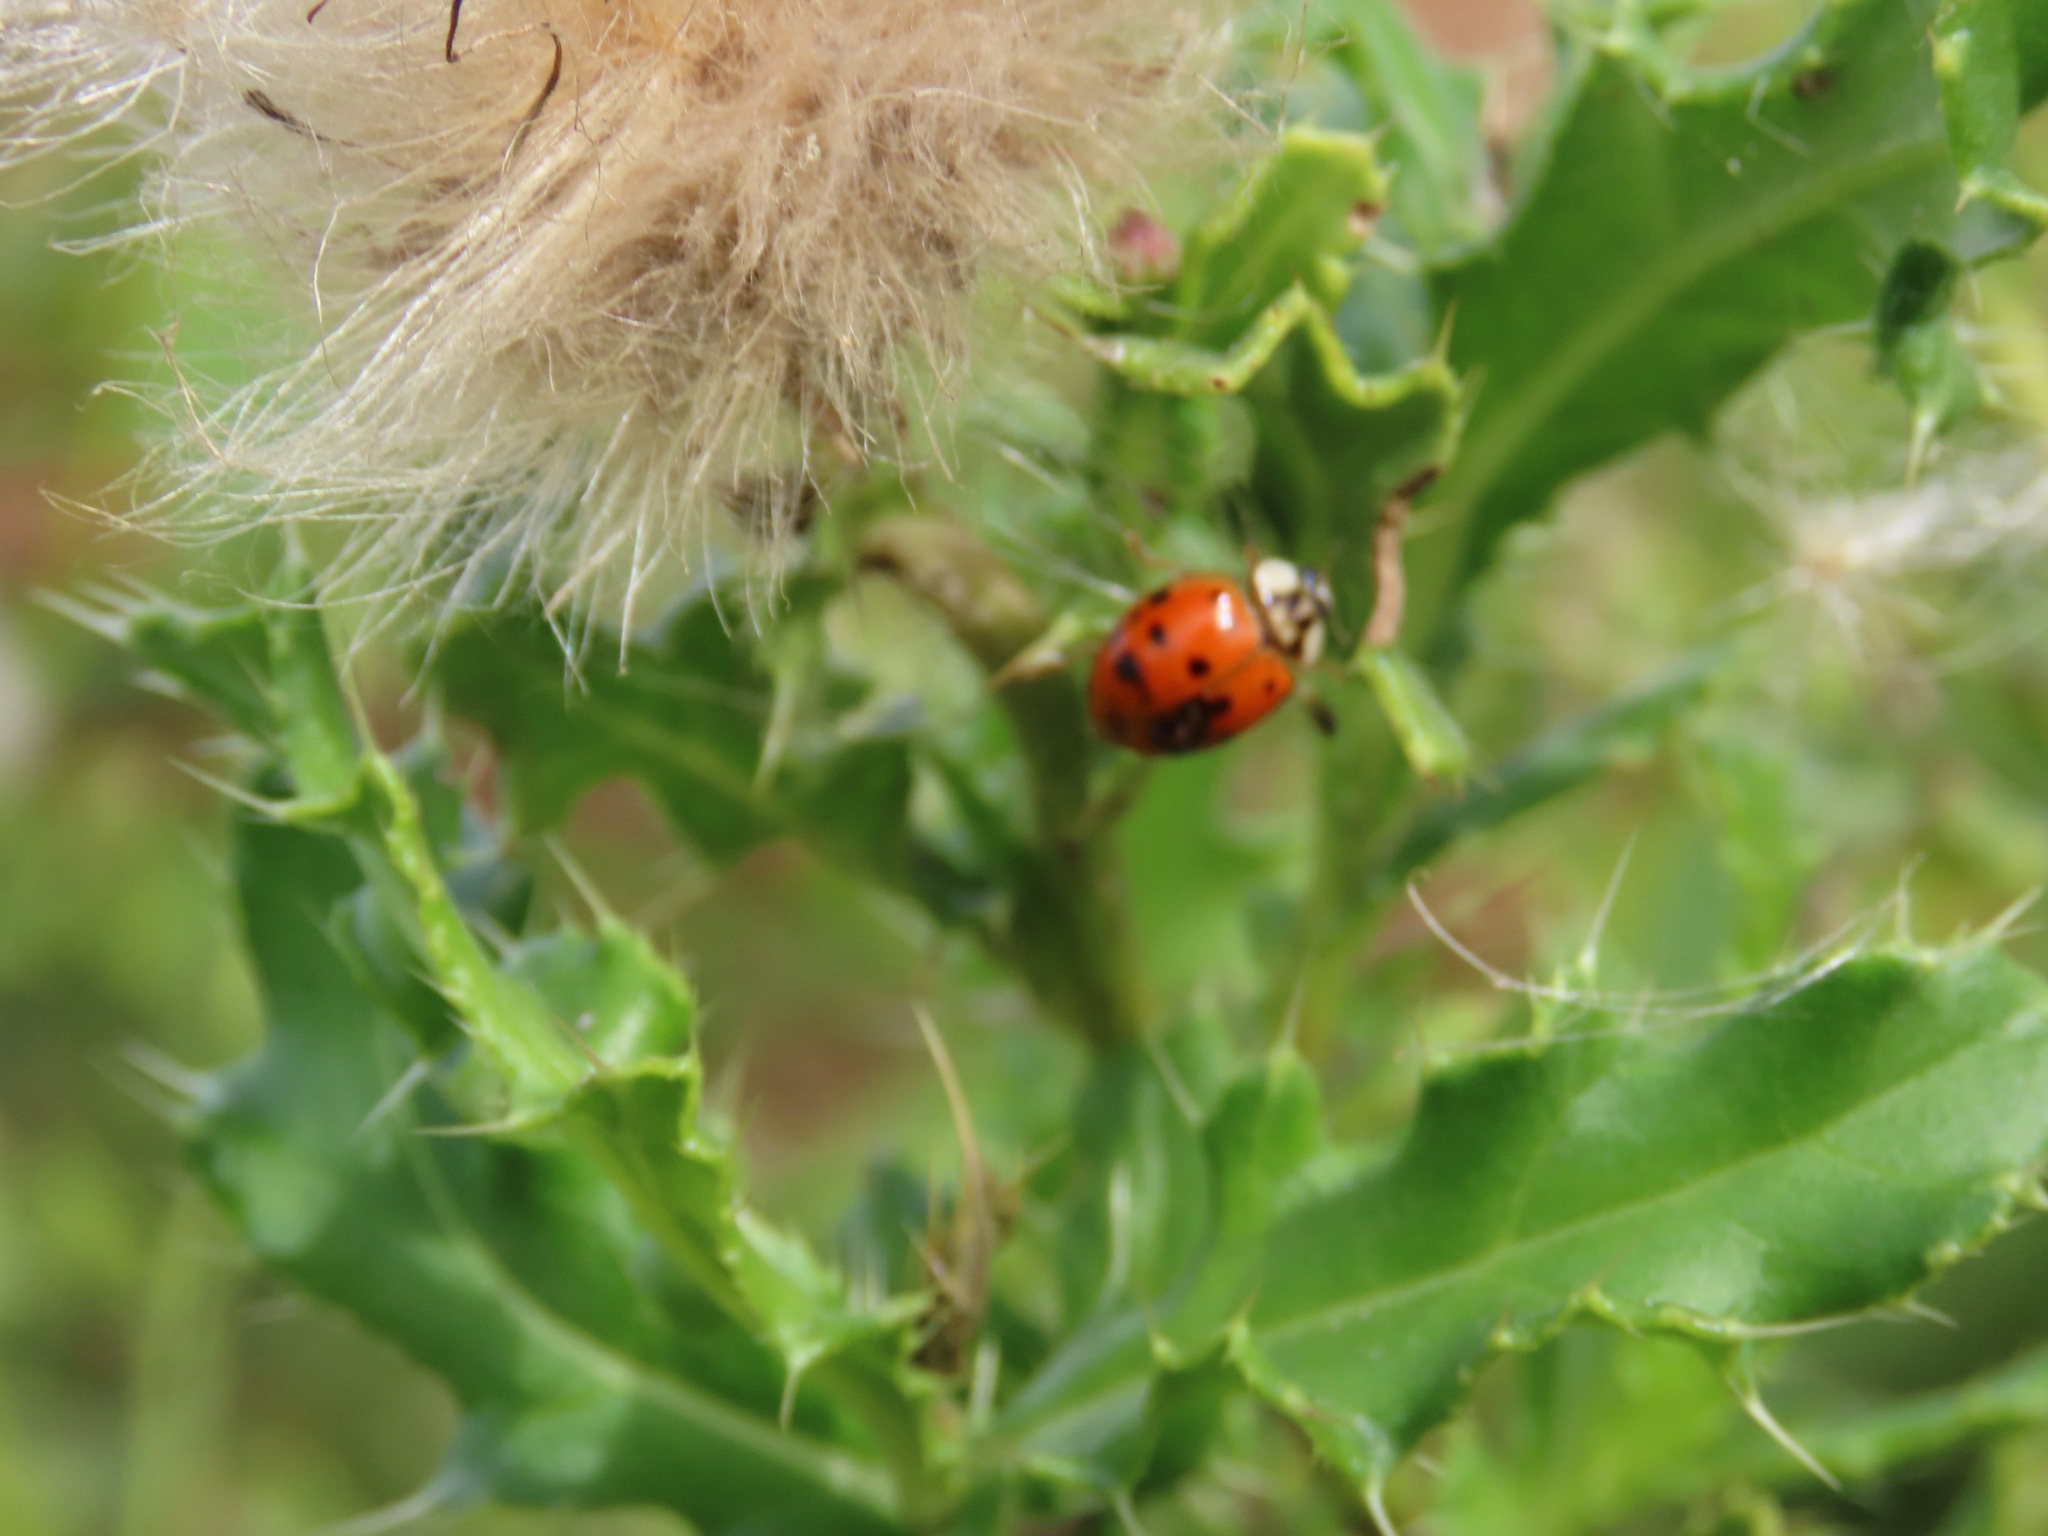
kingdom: Animalia
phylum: Arthropoda
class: Insecta
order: Coleoptera
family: Coccinellidae
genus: Harmonia
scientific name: Harmonia axyridis
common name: Harlequin ladybird
